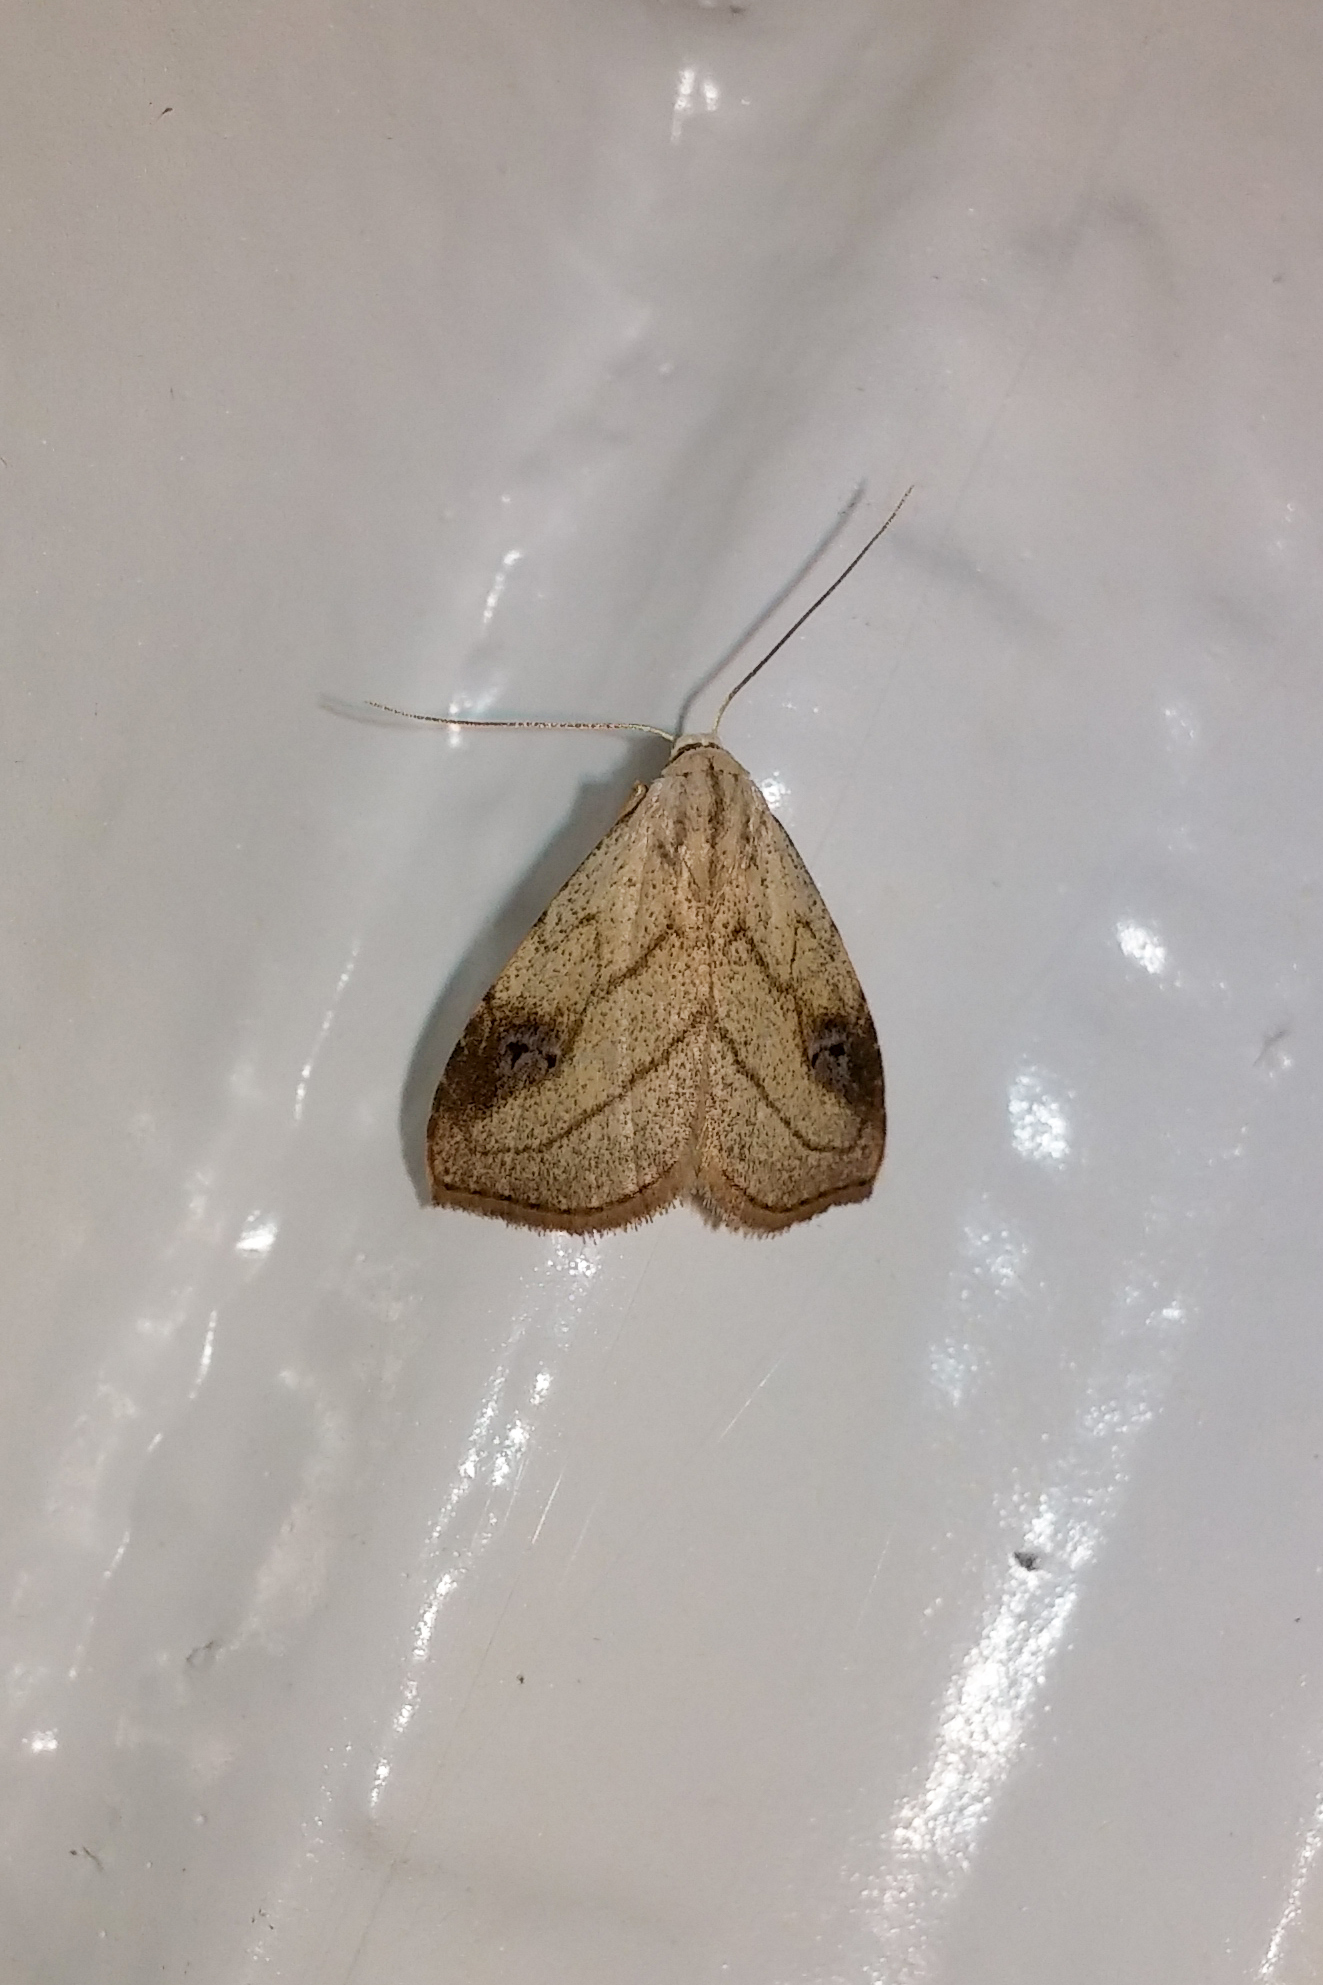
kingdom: Animalia
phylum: Arthropoda
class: Insecta
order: Lepidoptera
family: Erebidae
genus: Rivula
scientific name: Rivula propinqualis
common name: Spotted grass moth
